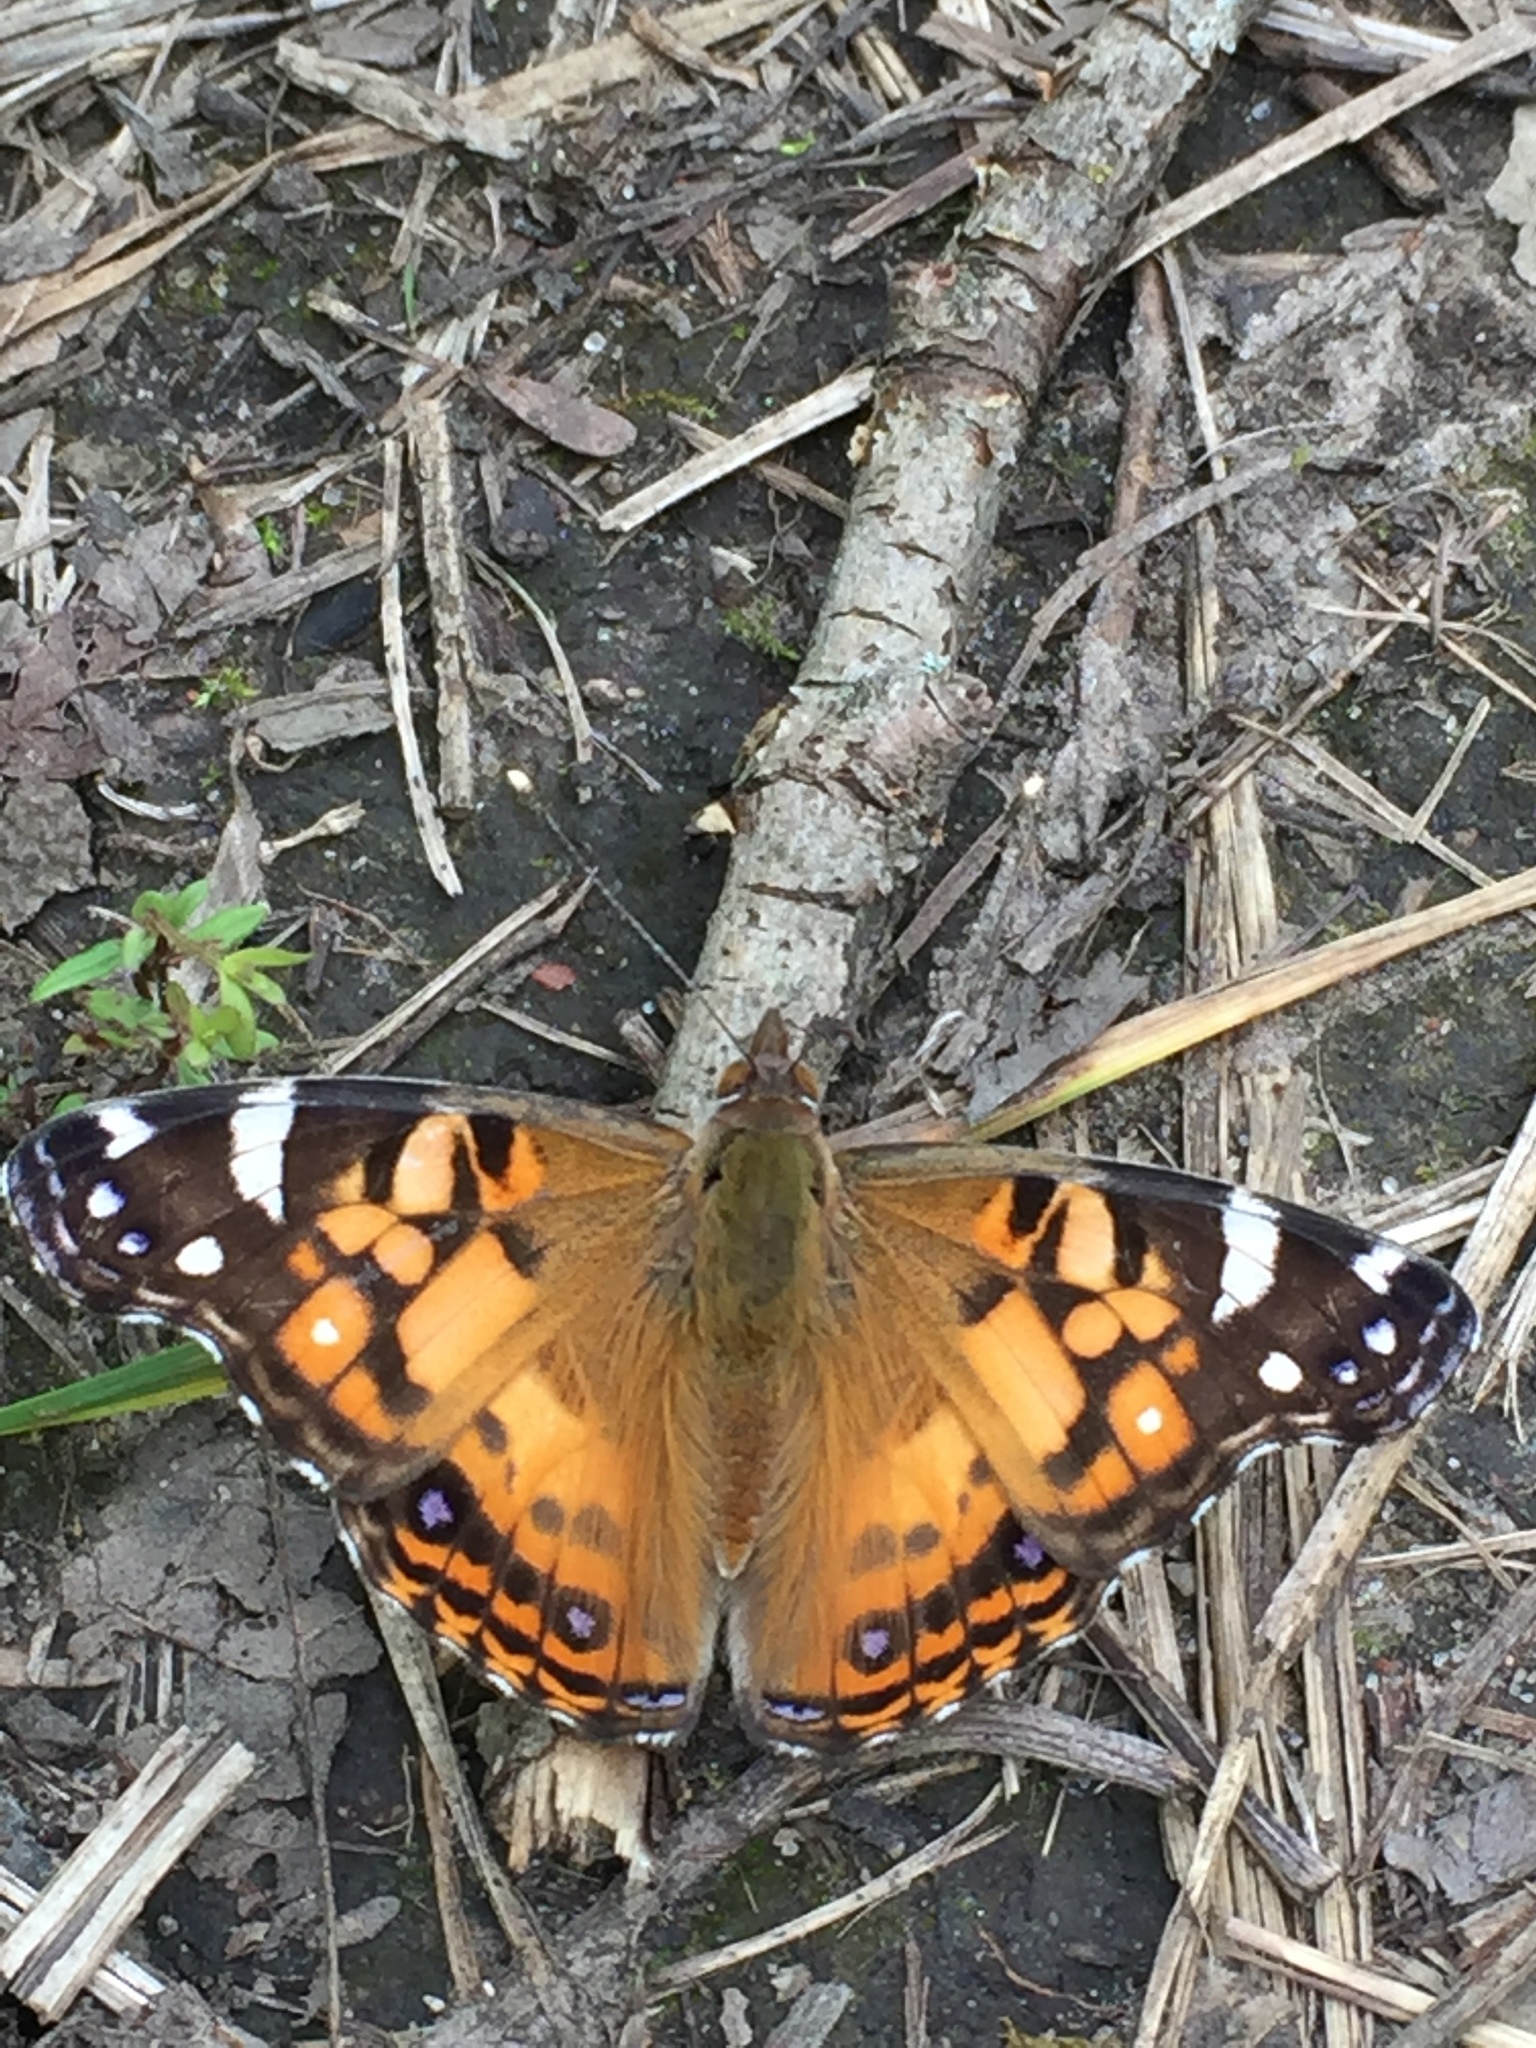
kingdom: Animalia
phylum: Arthropoda
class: Insecta
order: Lepidoptera
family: Nymphalidae
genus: Vanessa
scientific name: Vanessa virginiensis
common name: American lady
